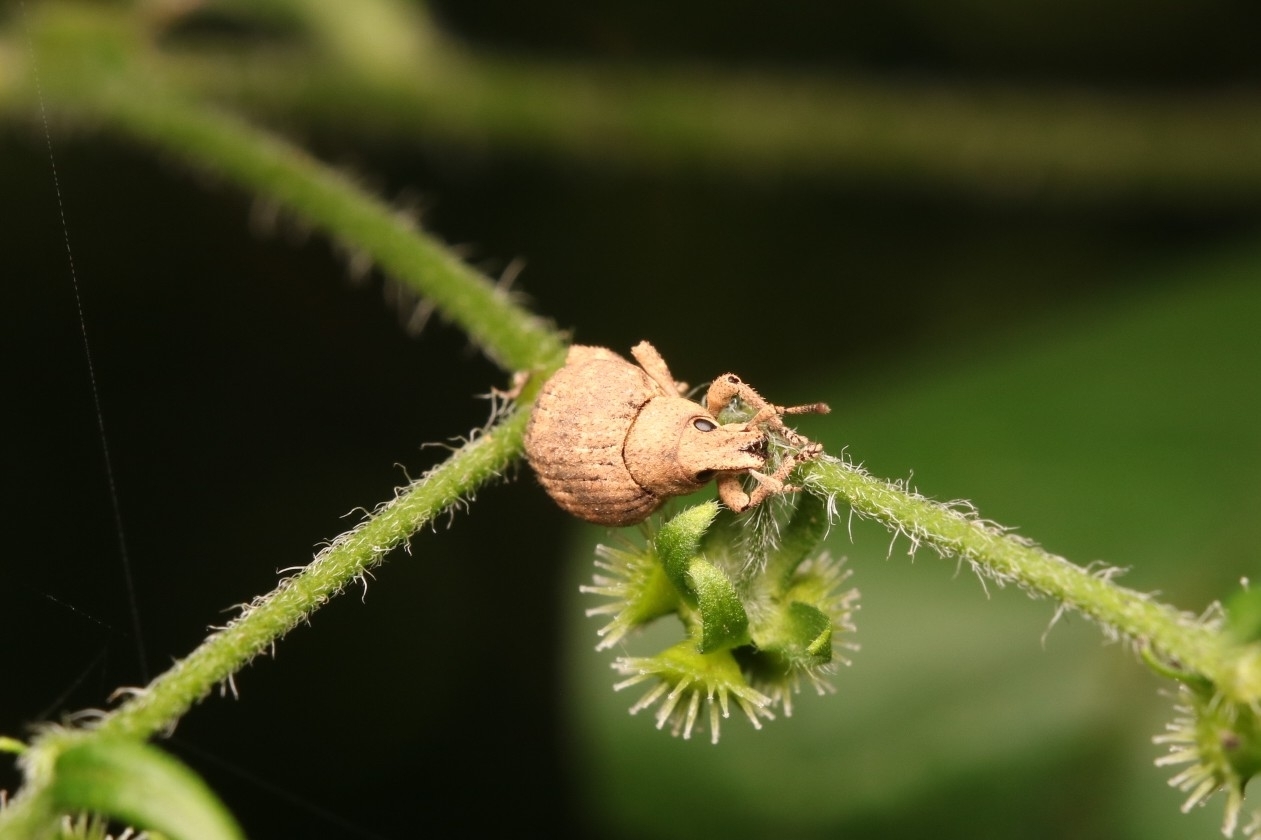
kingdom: Animalia
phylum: Arthropoda
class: Insecta
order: Coleoptera
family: Curculionidae
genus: Pseudocneorhinus
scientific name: Pseudocneorhinus bifasciatus
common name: Two-banded japanese weevil
